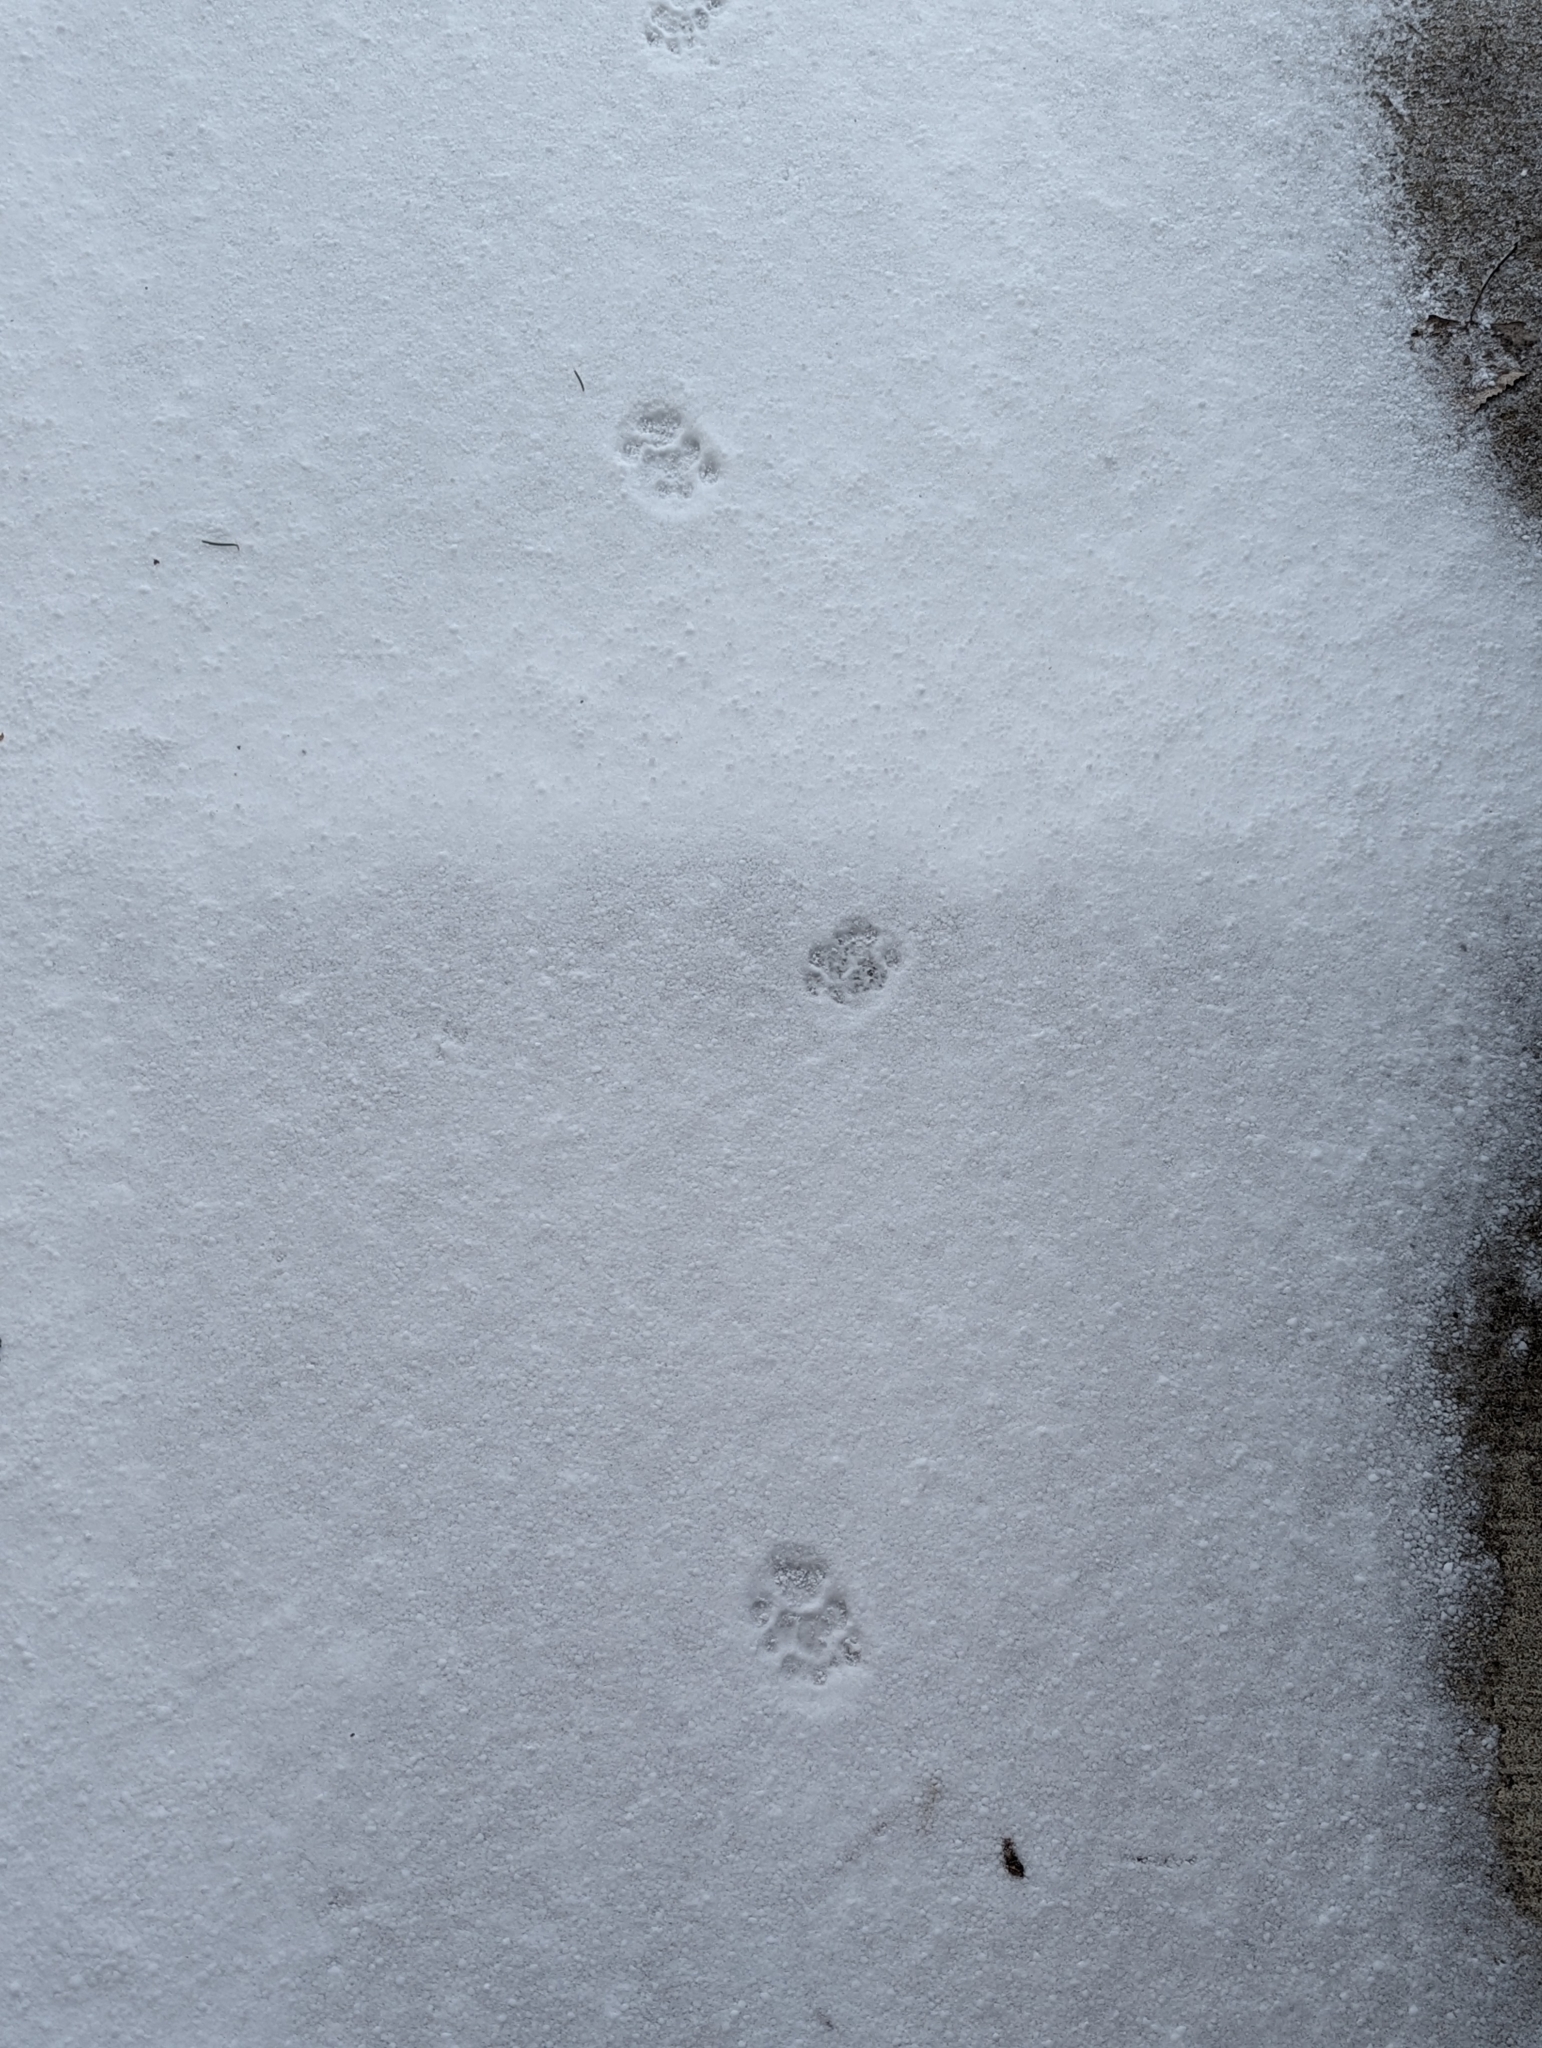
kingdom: Animalia
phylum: Chordata
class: Mammalia
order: Carnivora
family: Felidae
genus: Felis
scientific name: Felis catus
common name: Domestic cat
